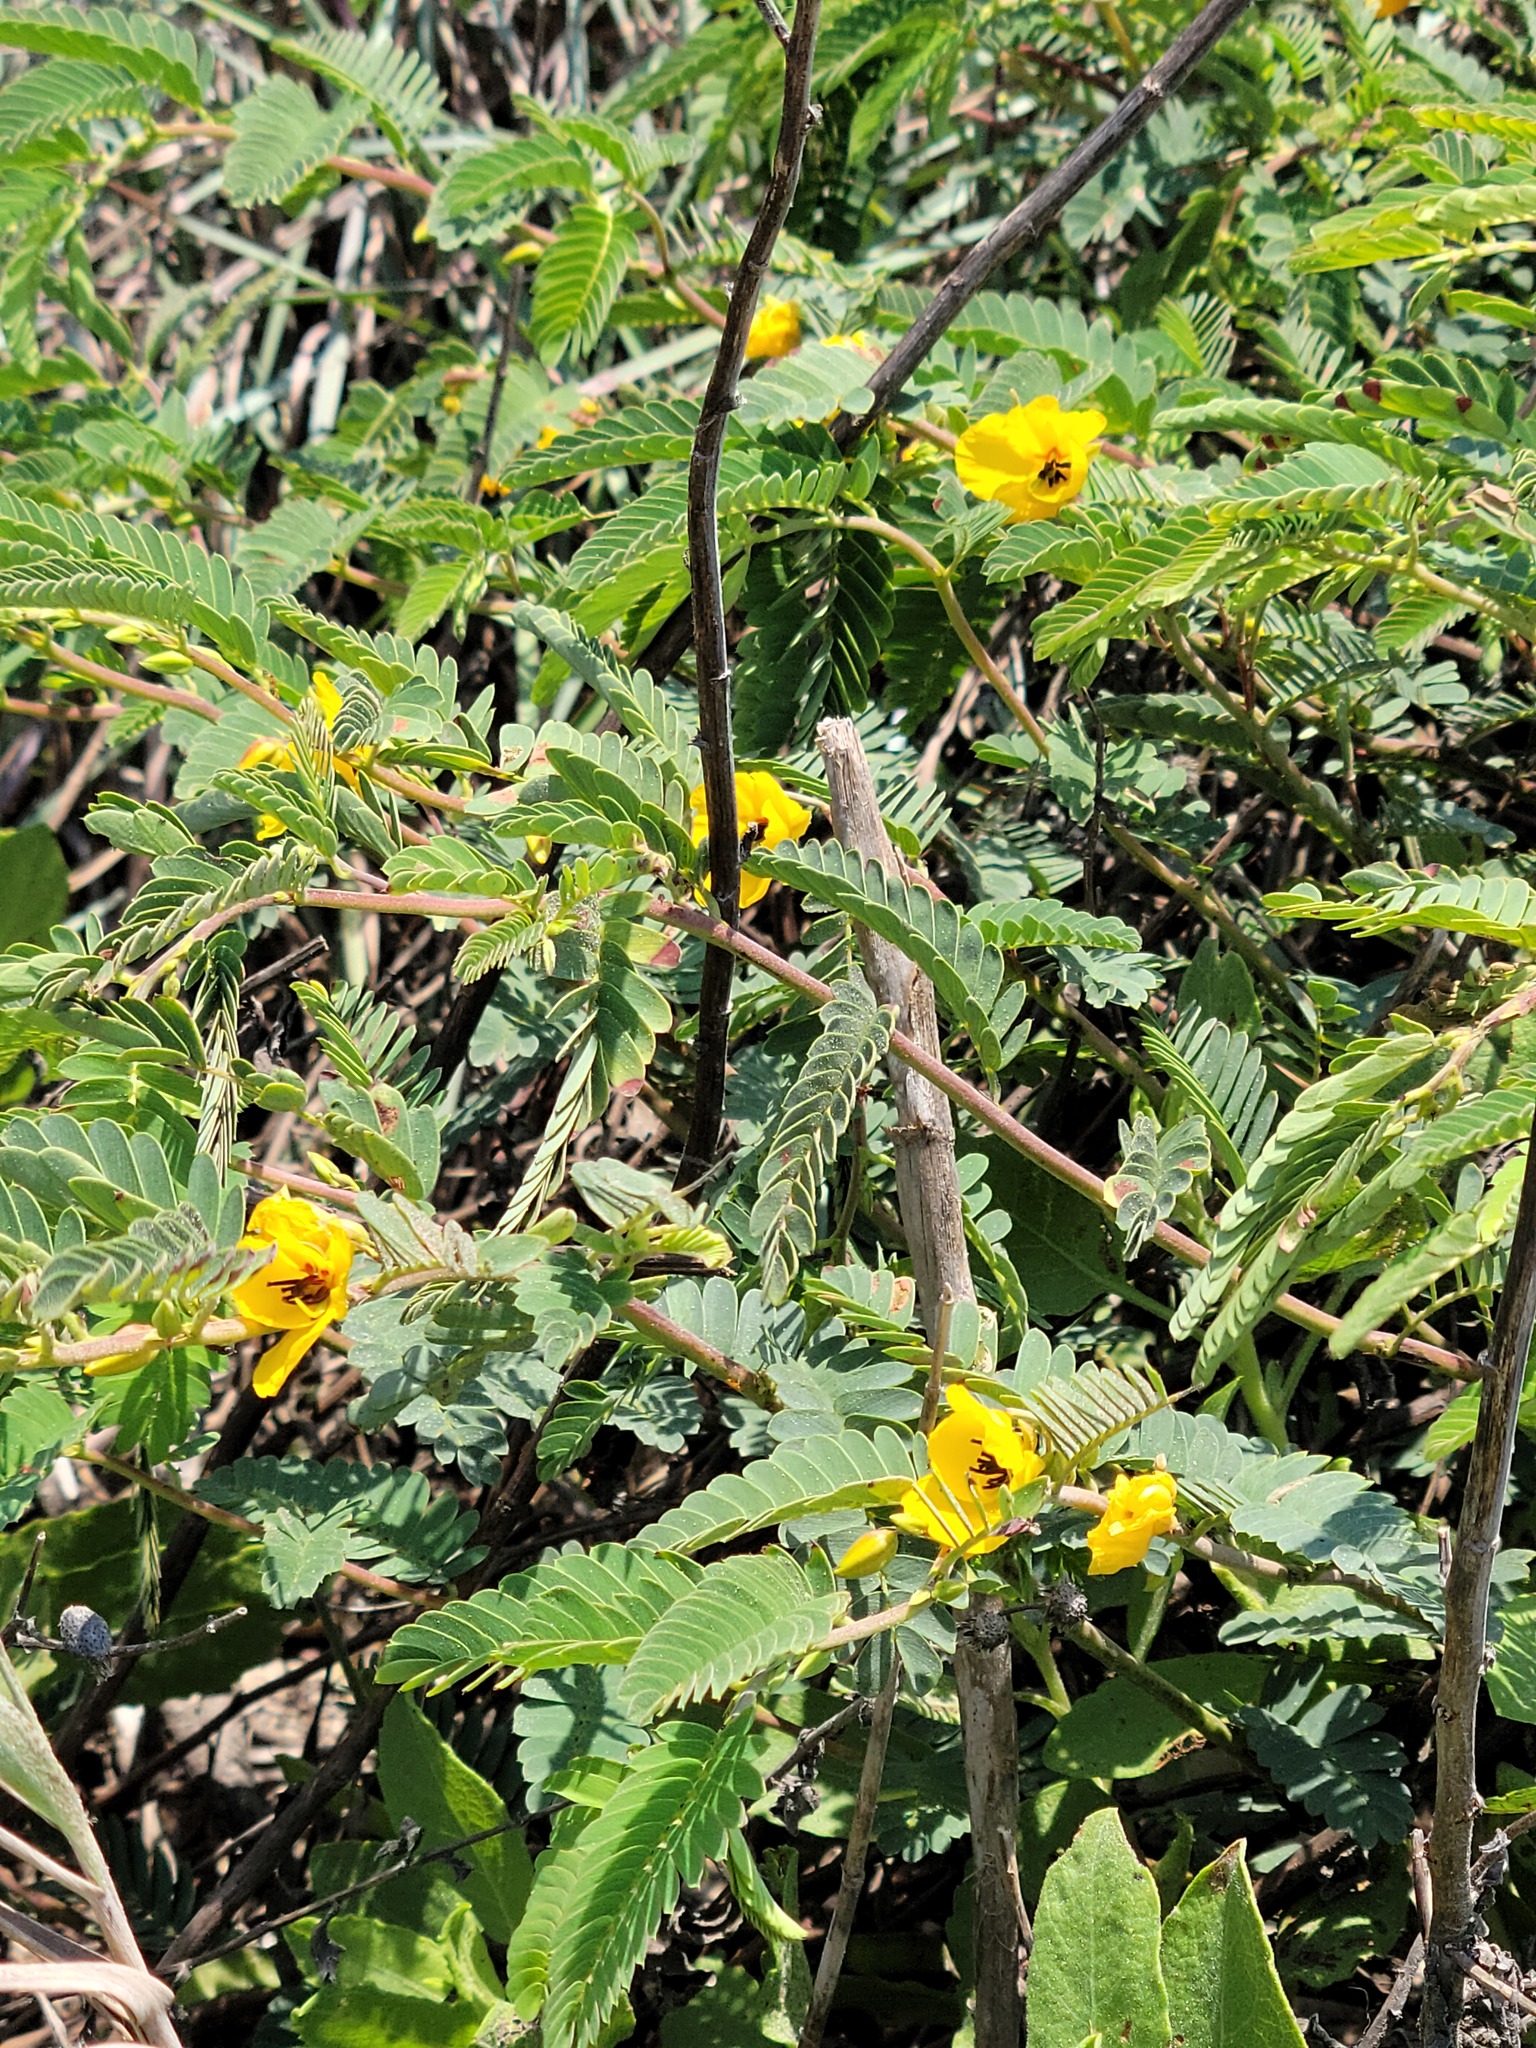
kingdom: Plantae
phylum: Tracheophyta
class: Magnoliopsida
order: Fabales
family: Fabaceae
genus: Chamaecrista
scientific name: Chamaecrista fasciculata
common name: Golden cassia
